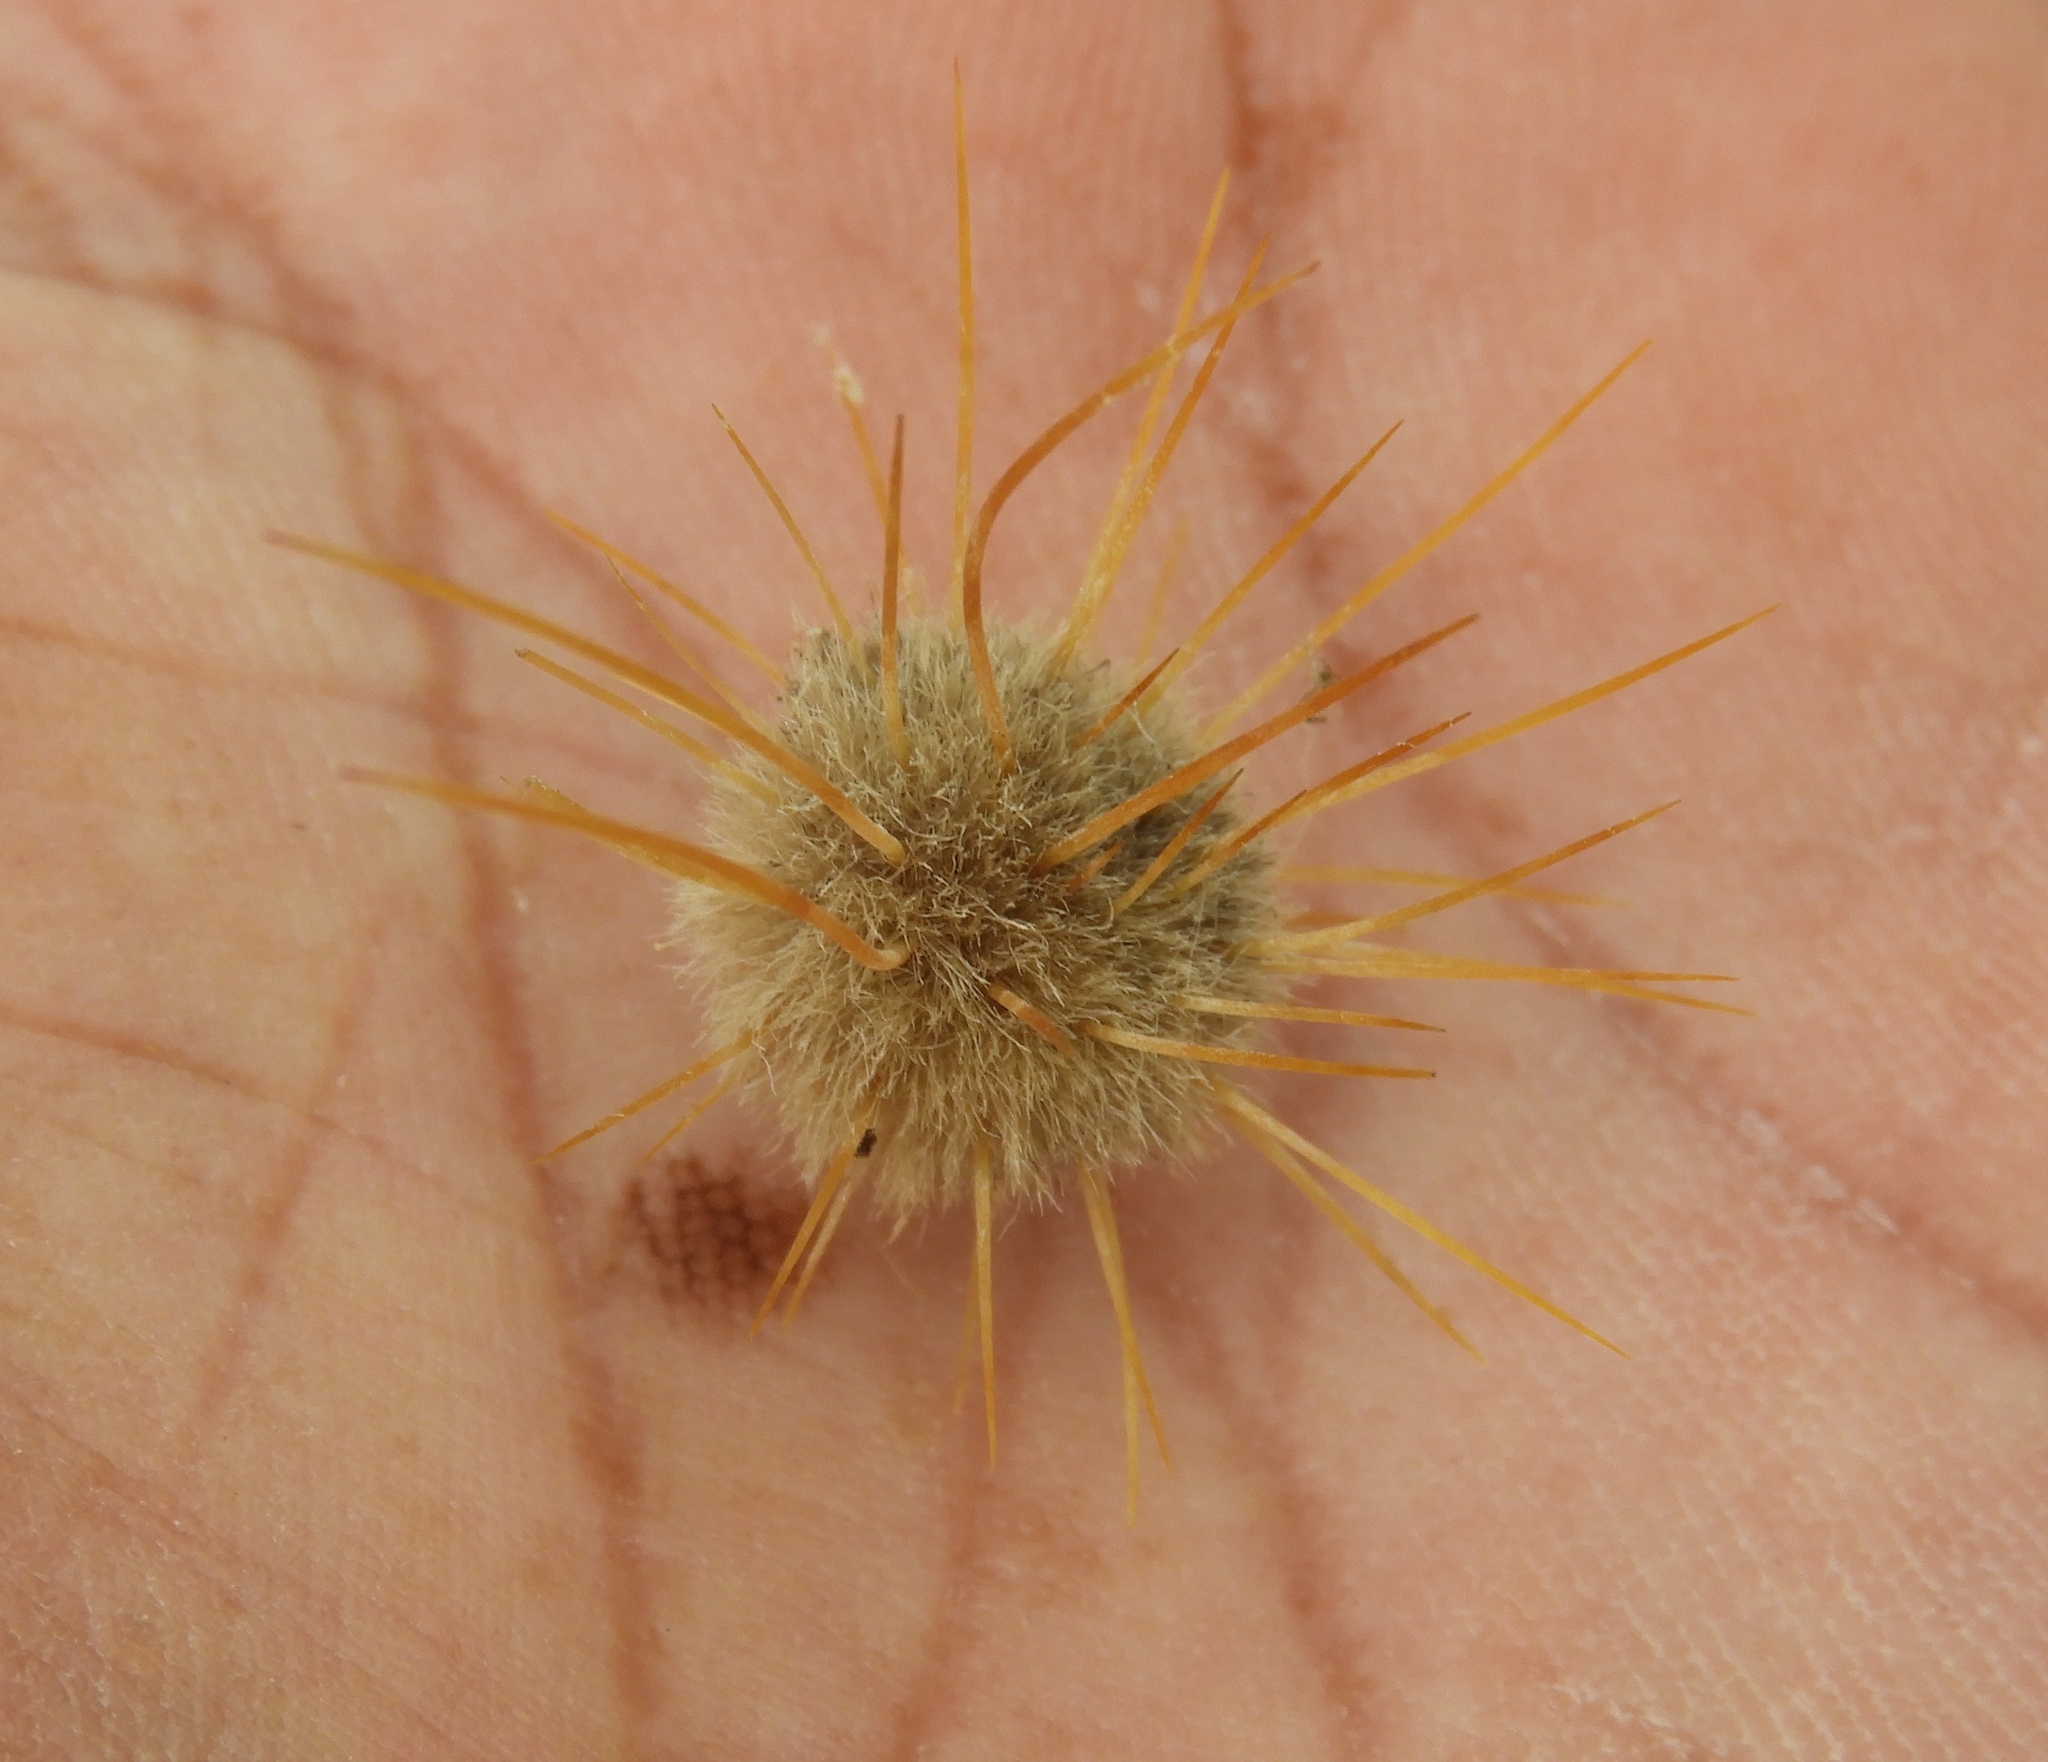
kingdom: Plantae
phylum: Tracheophyta
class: Magnoliopsida
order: Caryophyllales
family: Cactaceae
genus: Pachycereus
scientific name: Pachycereus pecten-aboriginum
